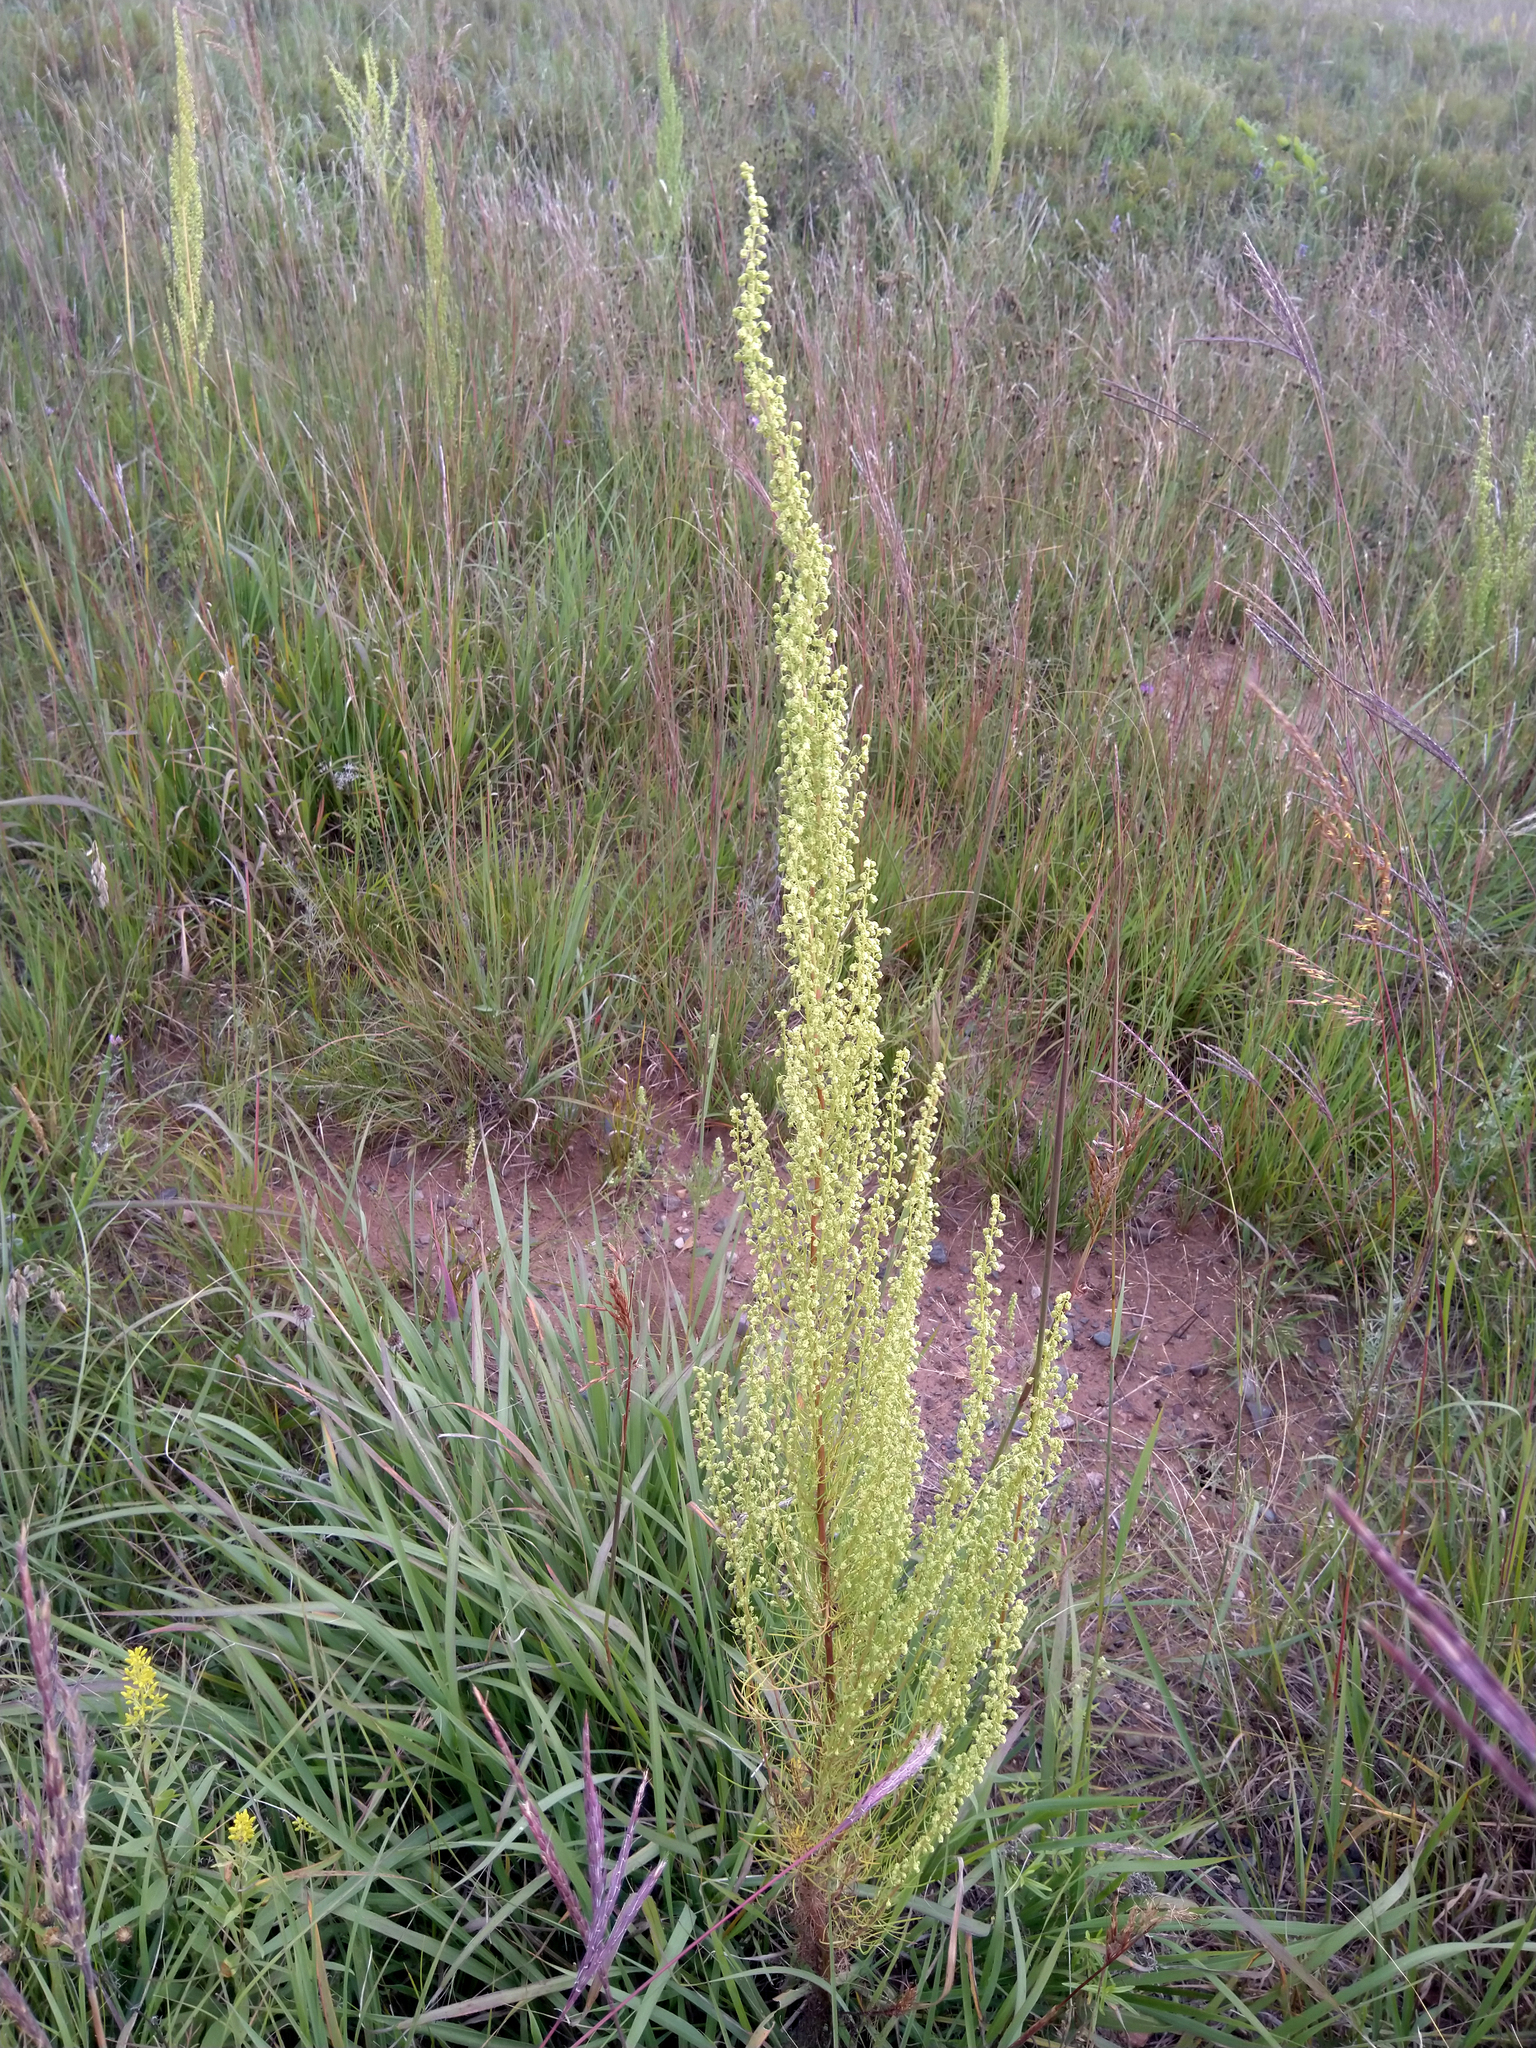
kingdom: Plantae
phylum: Tracheophyta
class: Magnoliopsida
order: Asterales
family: Asteraceae
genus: Artemisia
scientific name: Artemisia campestris
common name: Field wormwood
